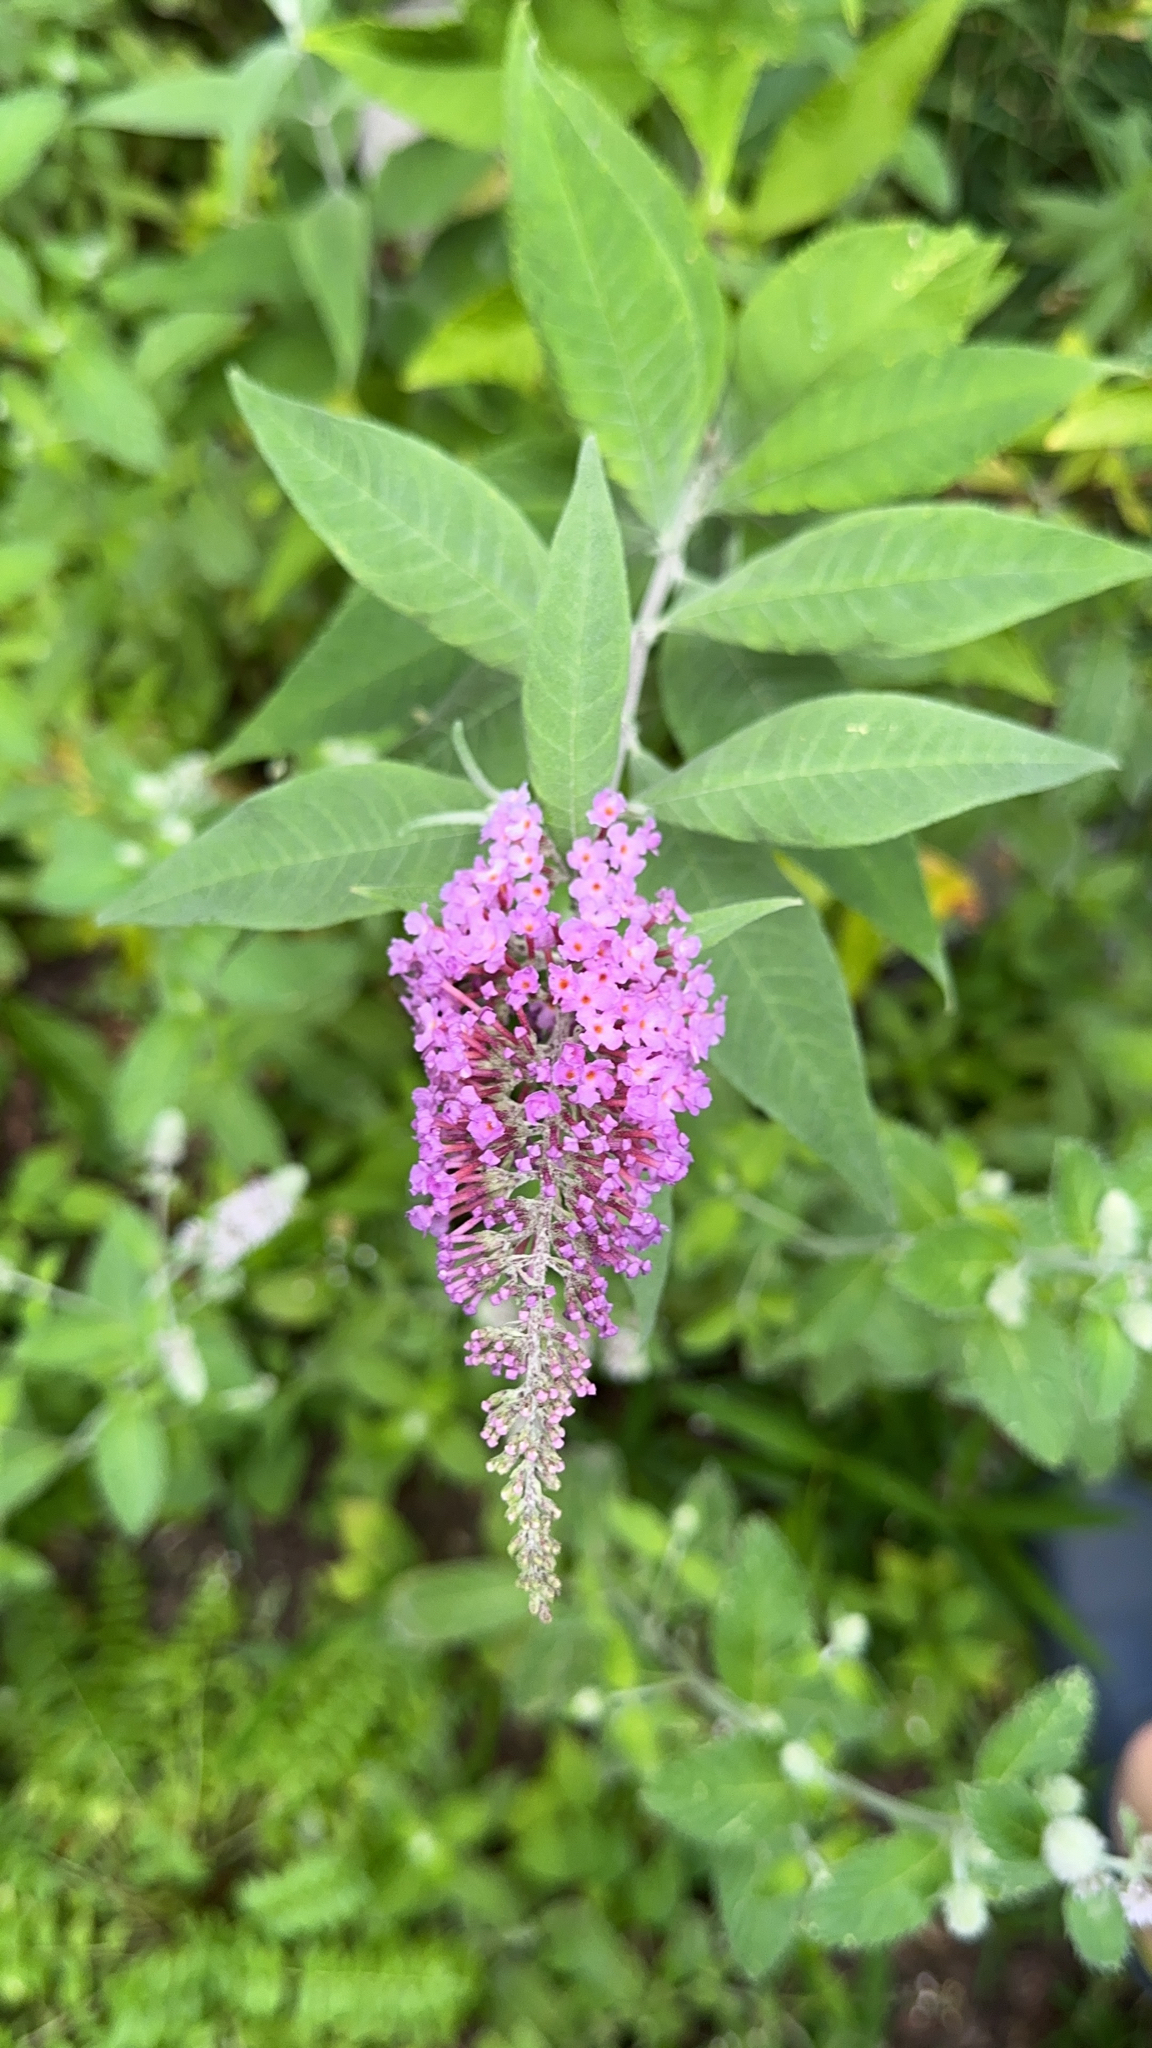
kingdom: Plantae
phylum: Tracheophyta
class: Magnoliopsida
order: Lamiales
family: Scrophulariaceae
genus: Buddleja
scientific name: Buddleja davidii
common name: Butterfly-bush
